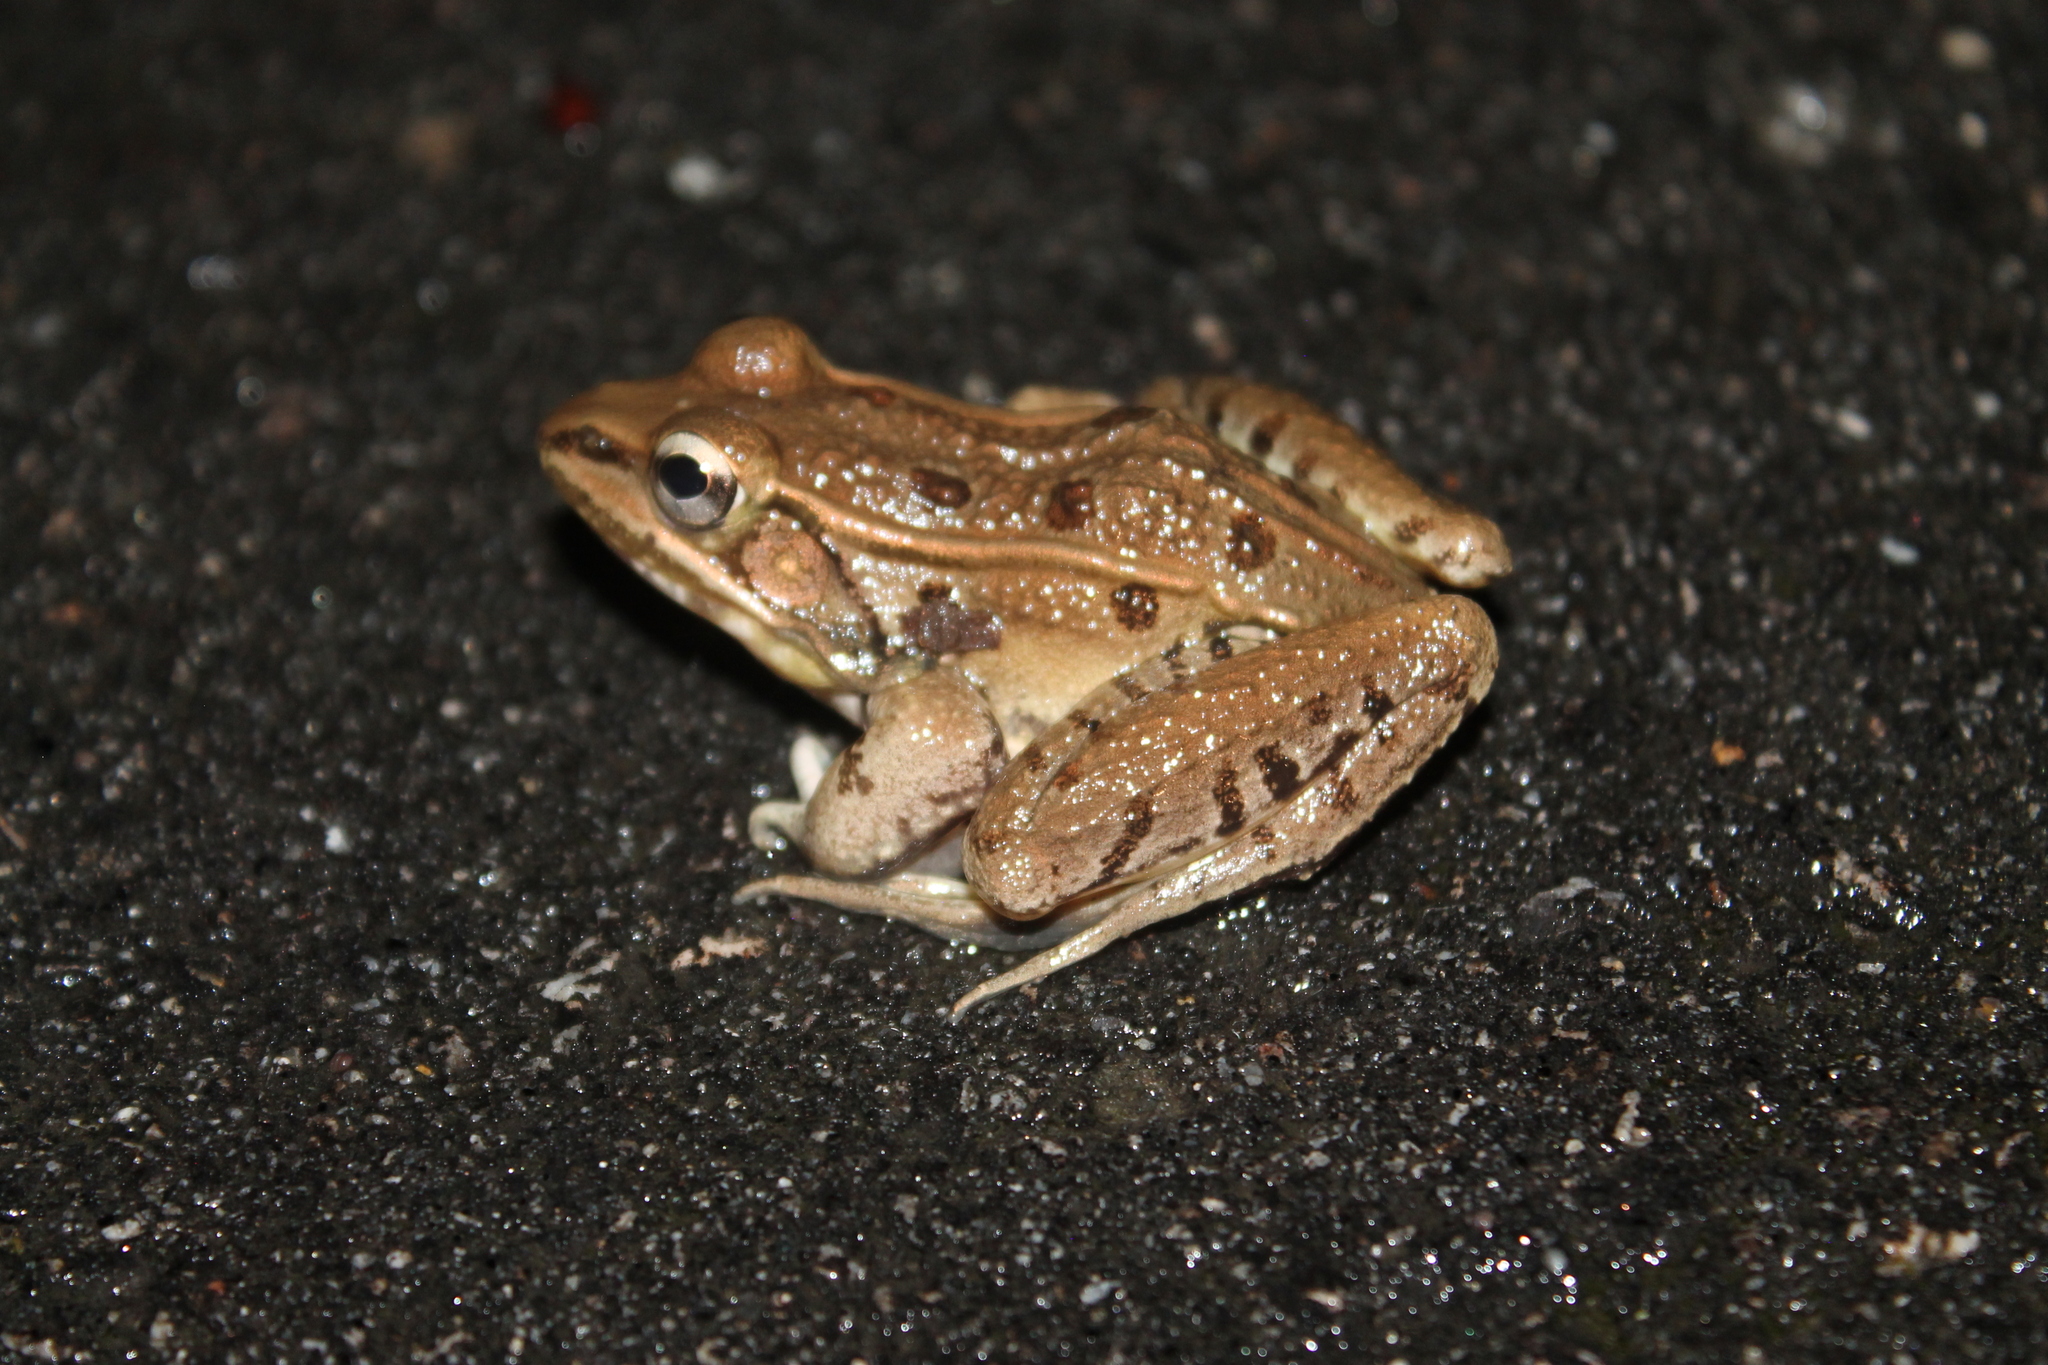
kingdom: Animalia
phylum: Chordata
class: Amphibia
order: Anura
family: Ranidae
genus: Lithobates
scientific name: Lithobates sphenocephalus
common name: Southern leopard frog
